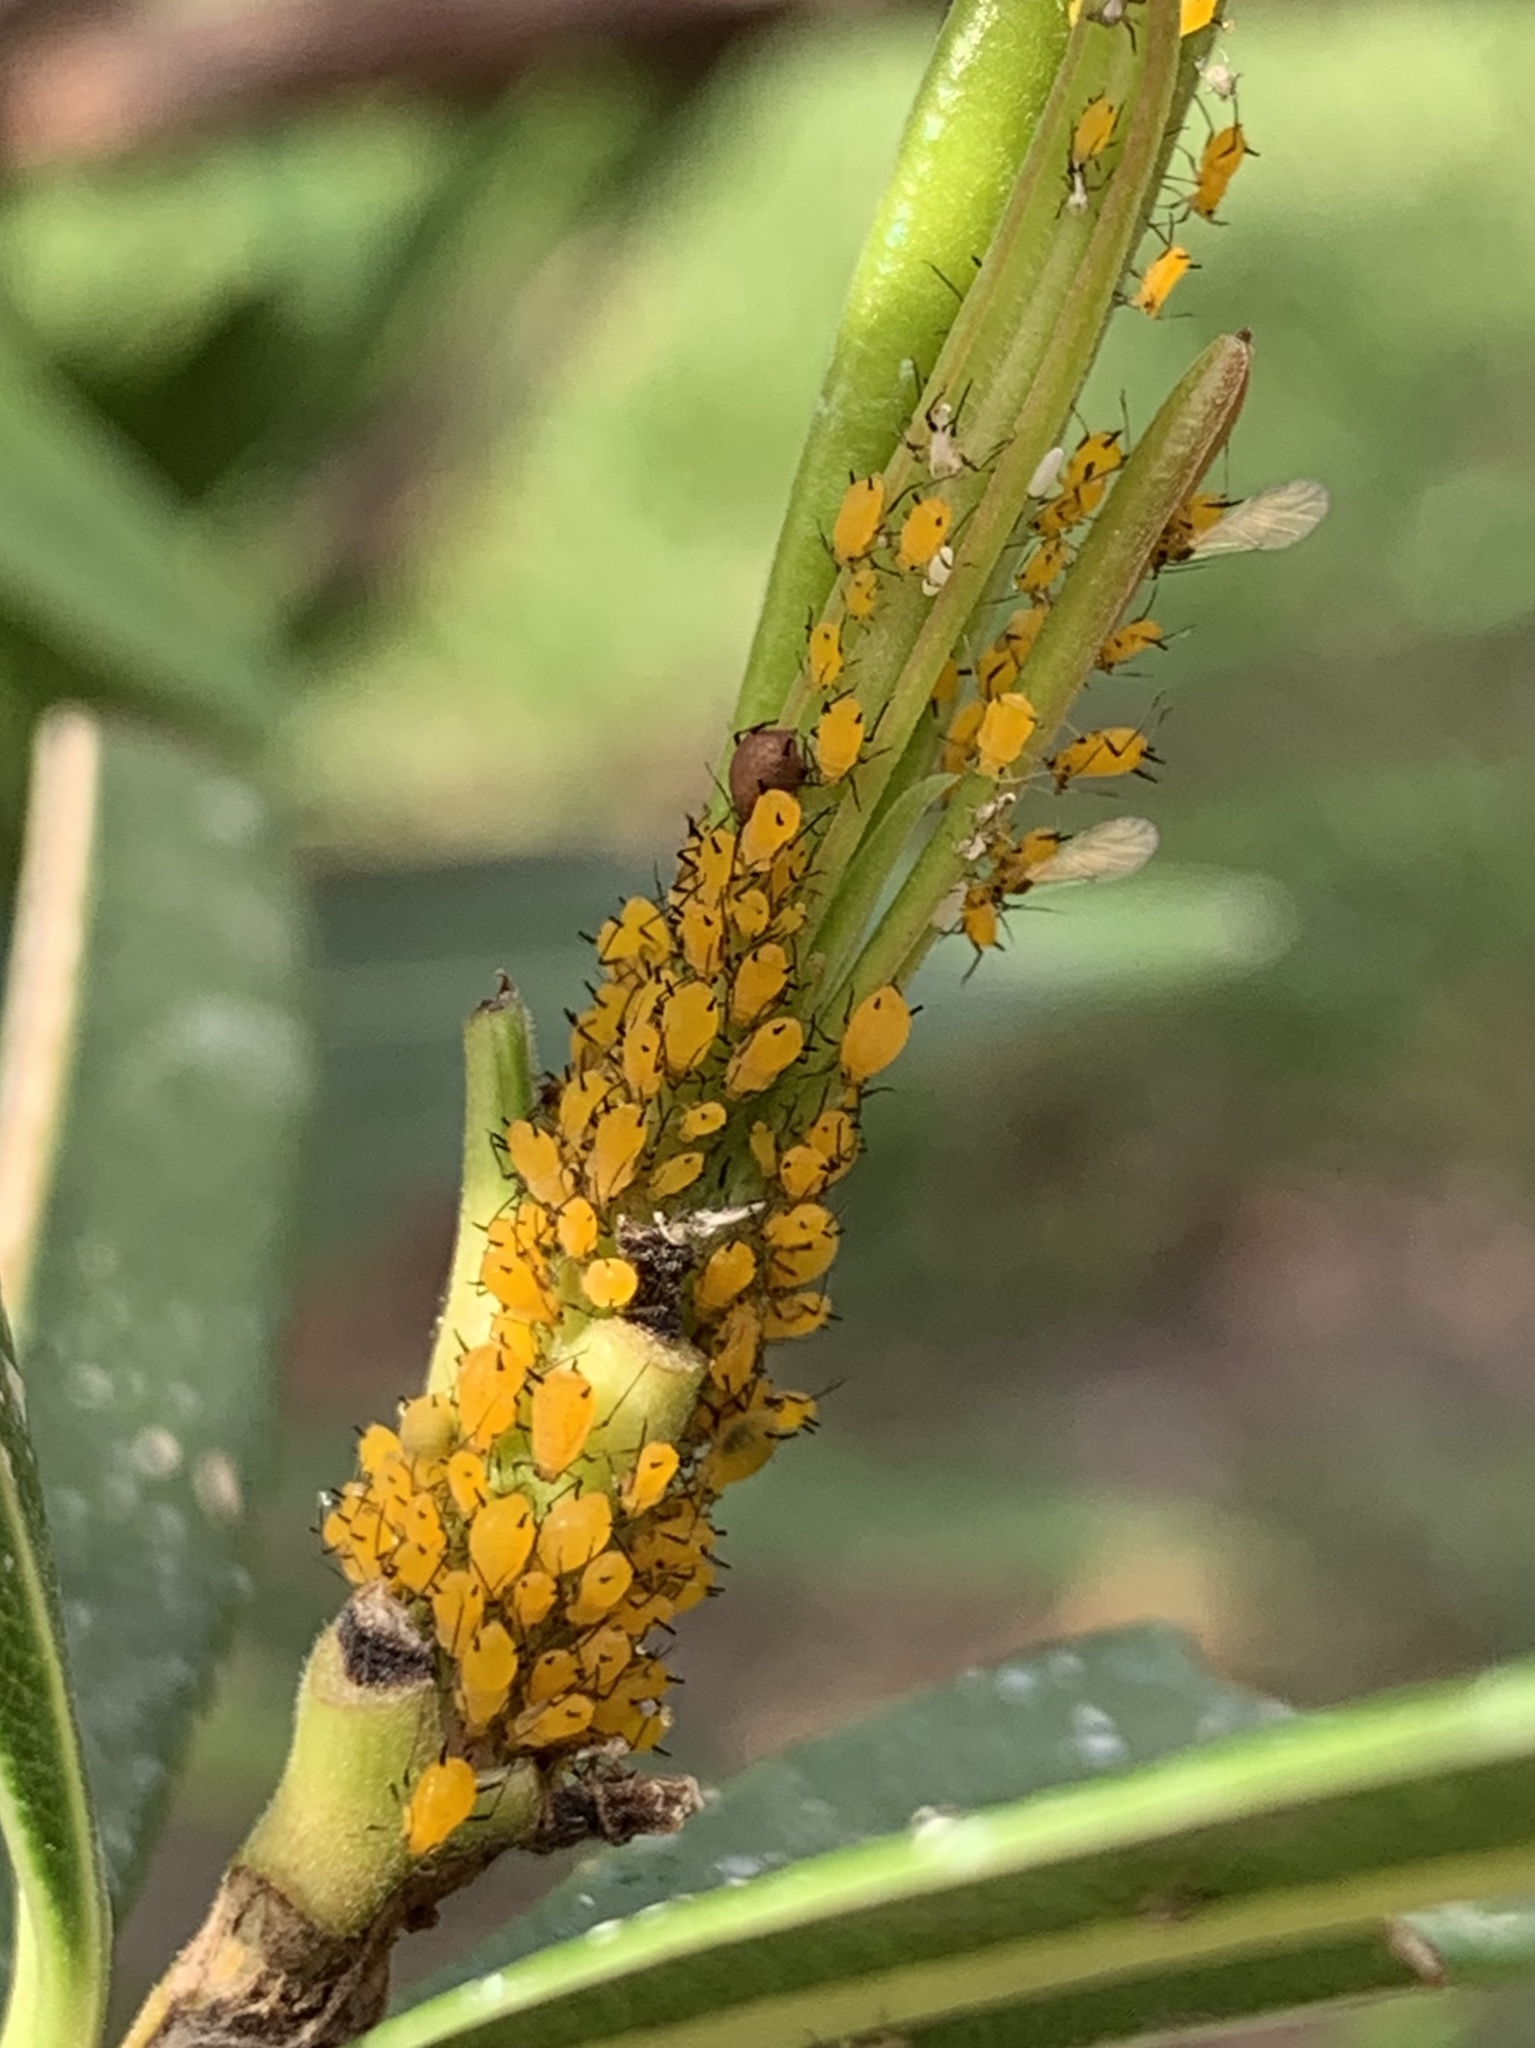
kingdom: Animalia
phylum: Arthropoda
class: Insecta
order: Hemiptera
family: Aphididae
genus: Aphis
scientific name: Aphis nerii
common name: Oleander aphid
